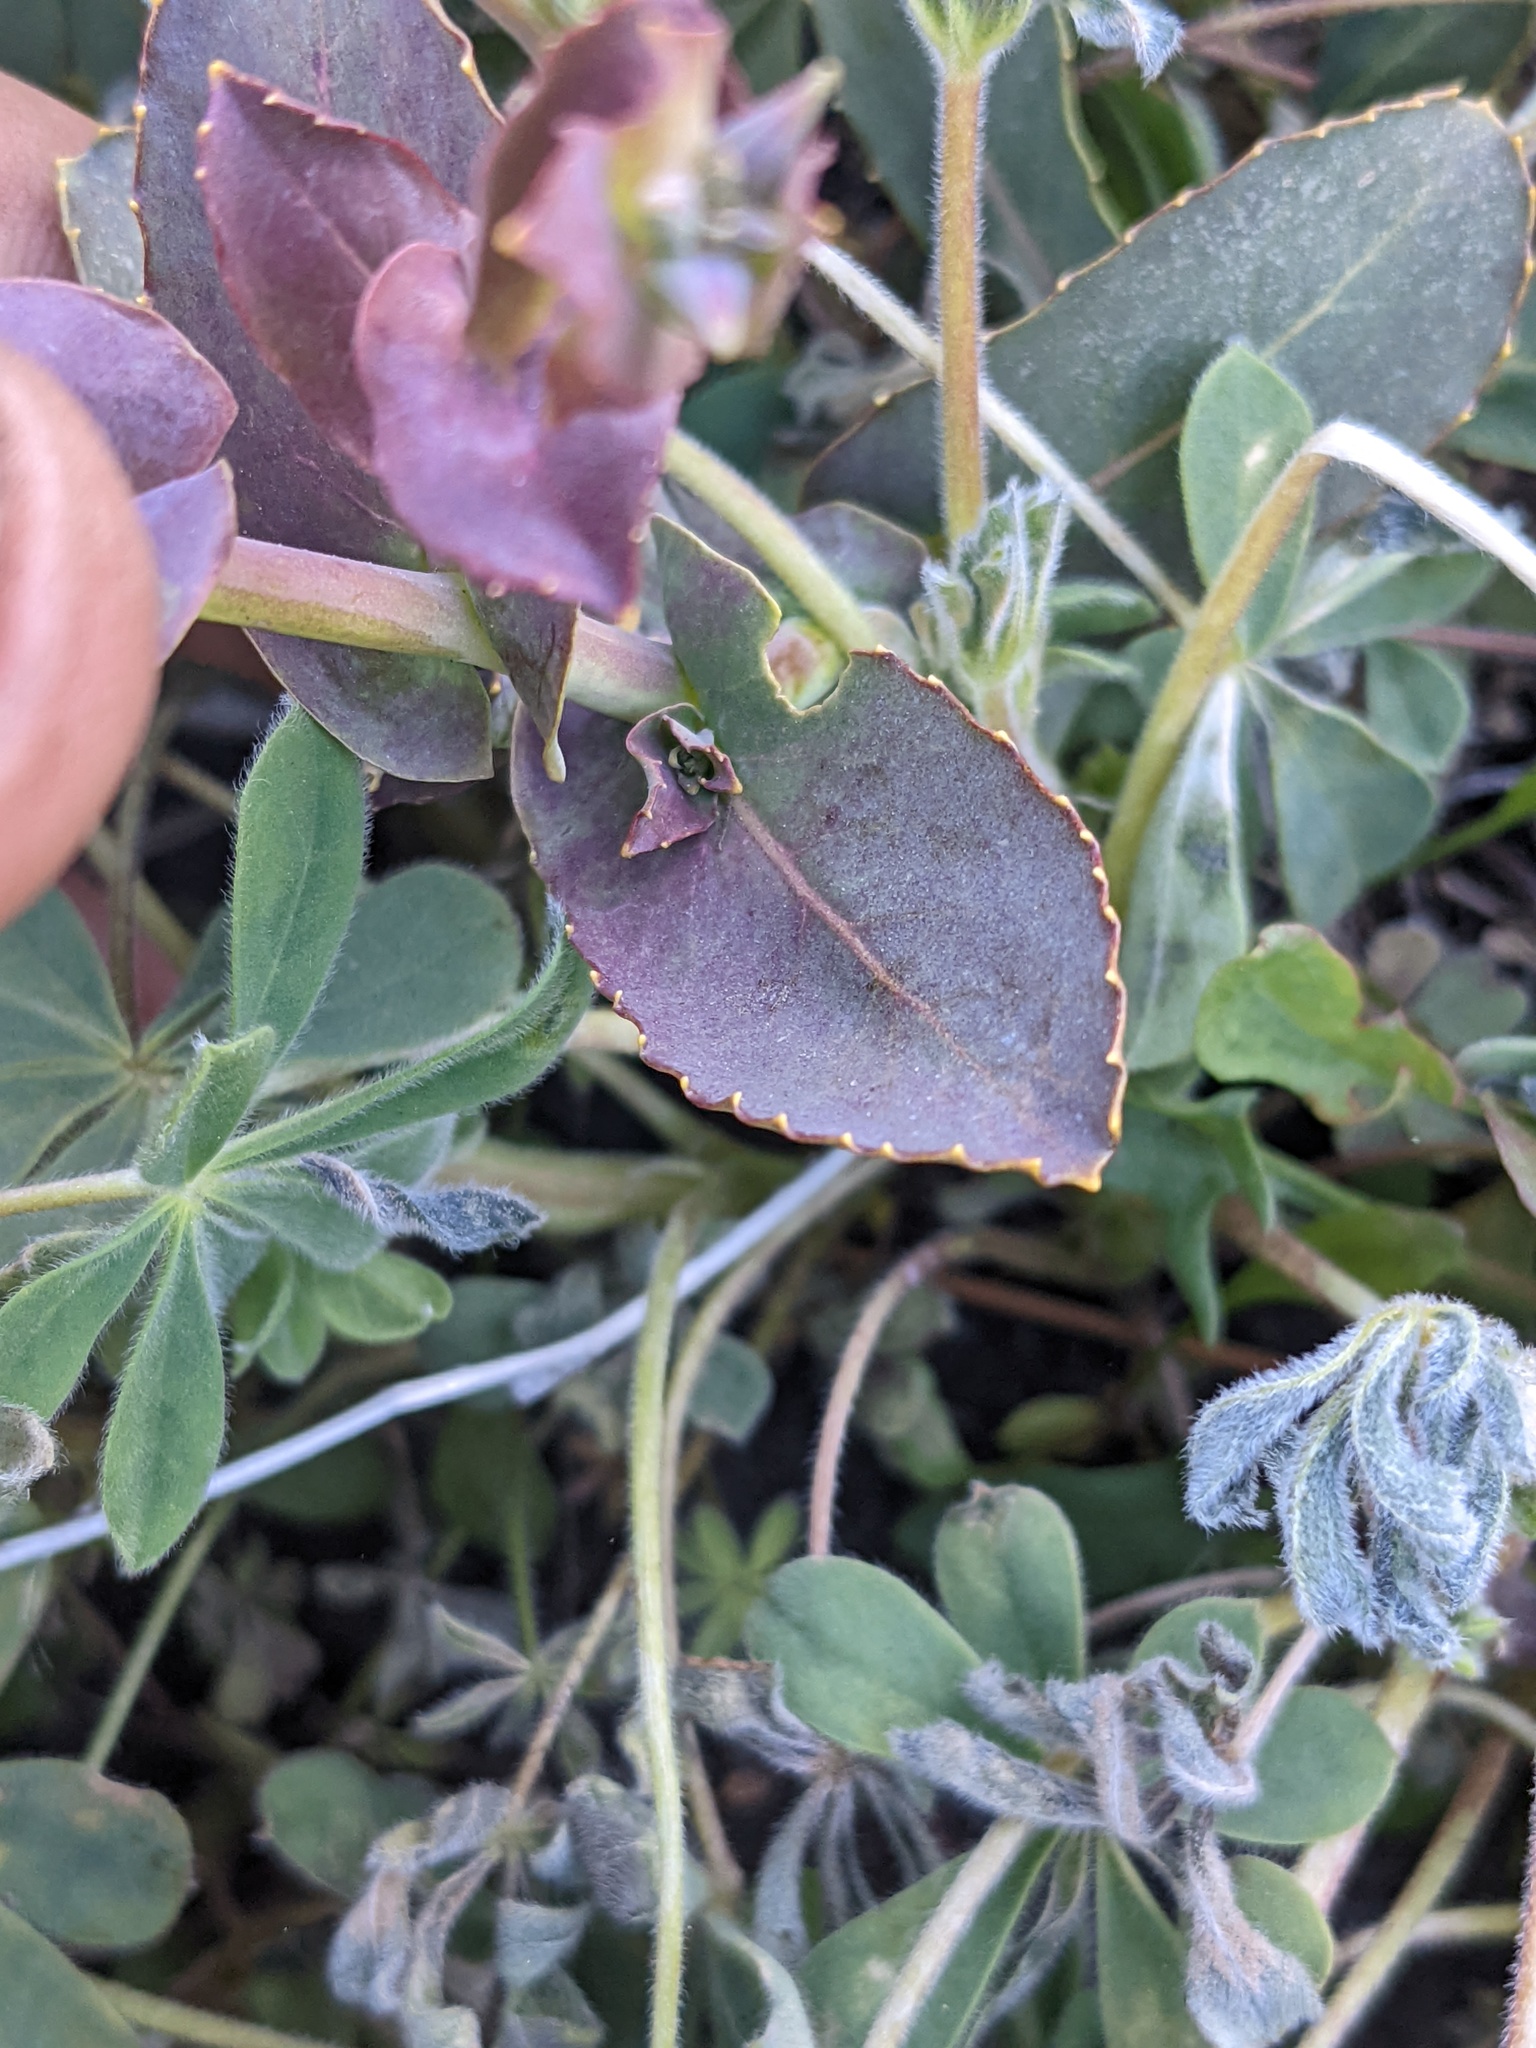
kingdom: Plantae
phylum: Tracheophyta
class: Magnoliopsida
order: Brassicales
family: Brassicaceae
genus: Streptanthus
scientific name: Streptanthus tortuosus
